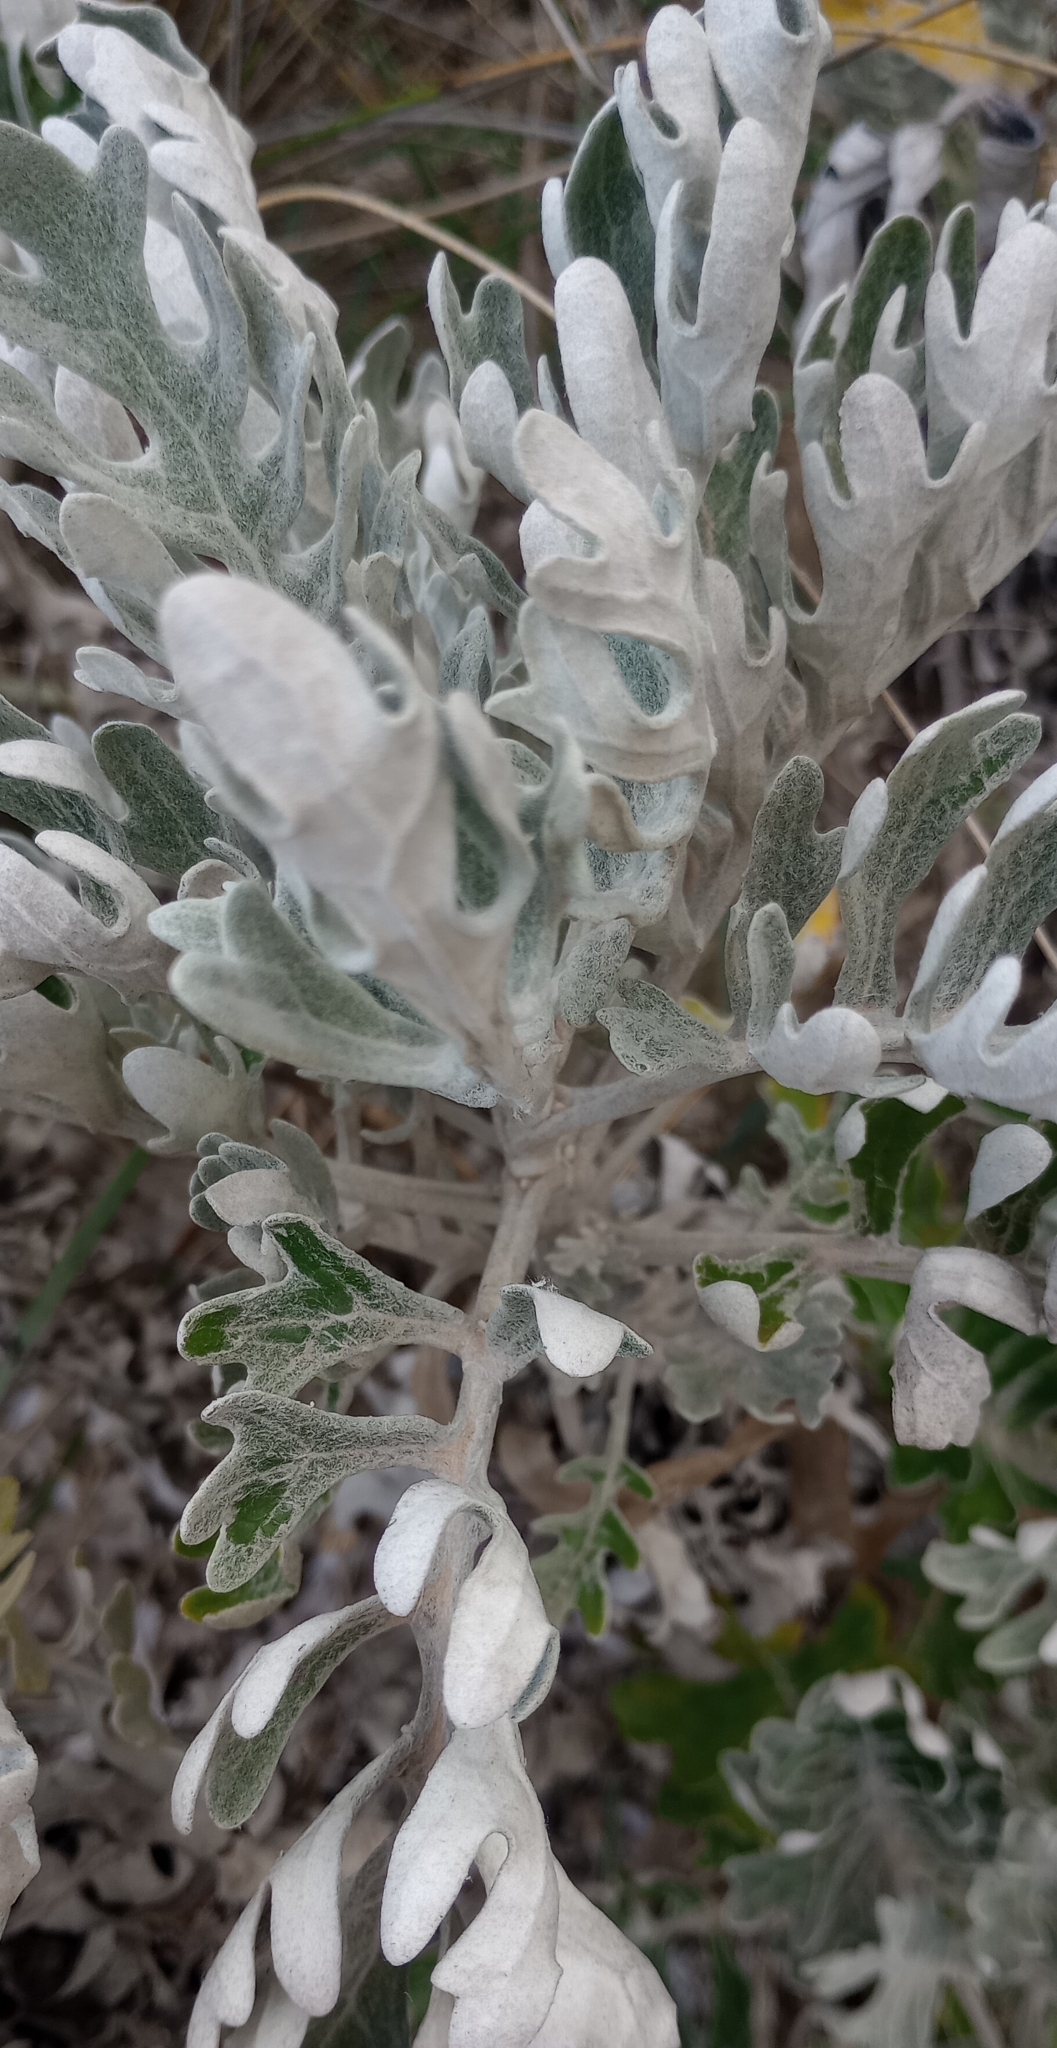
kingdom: Plantae
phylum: Tracheophyta
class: Magnoliopsida
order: Asterales
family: Asteraceae
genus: Jacobaea
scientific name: Jacobaea maritima
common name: Silver ragwort
